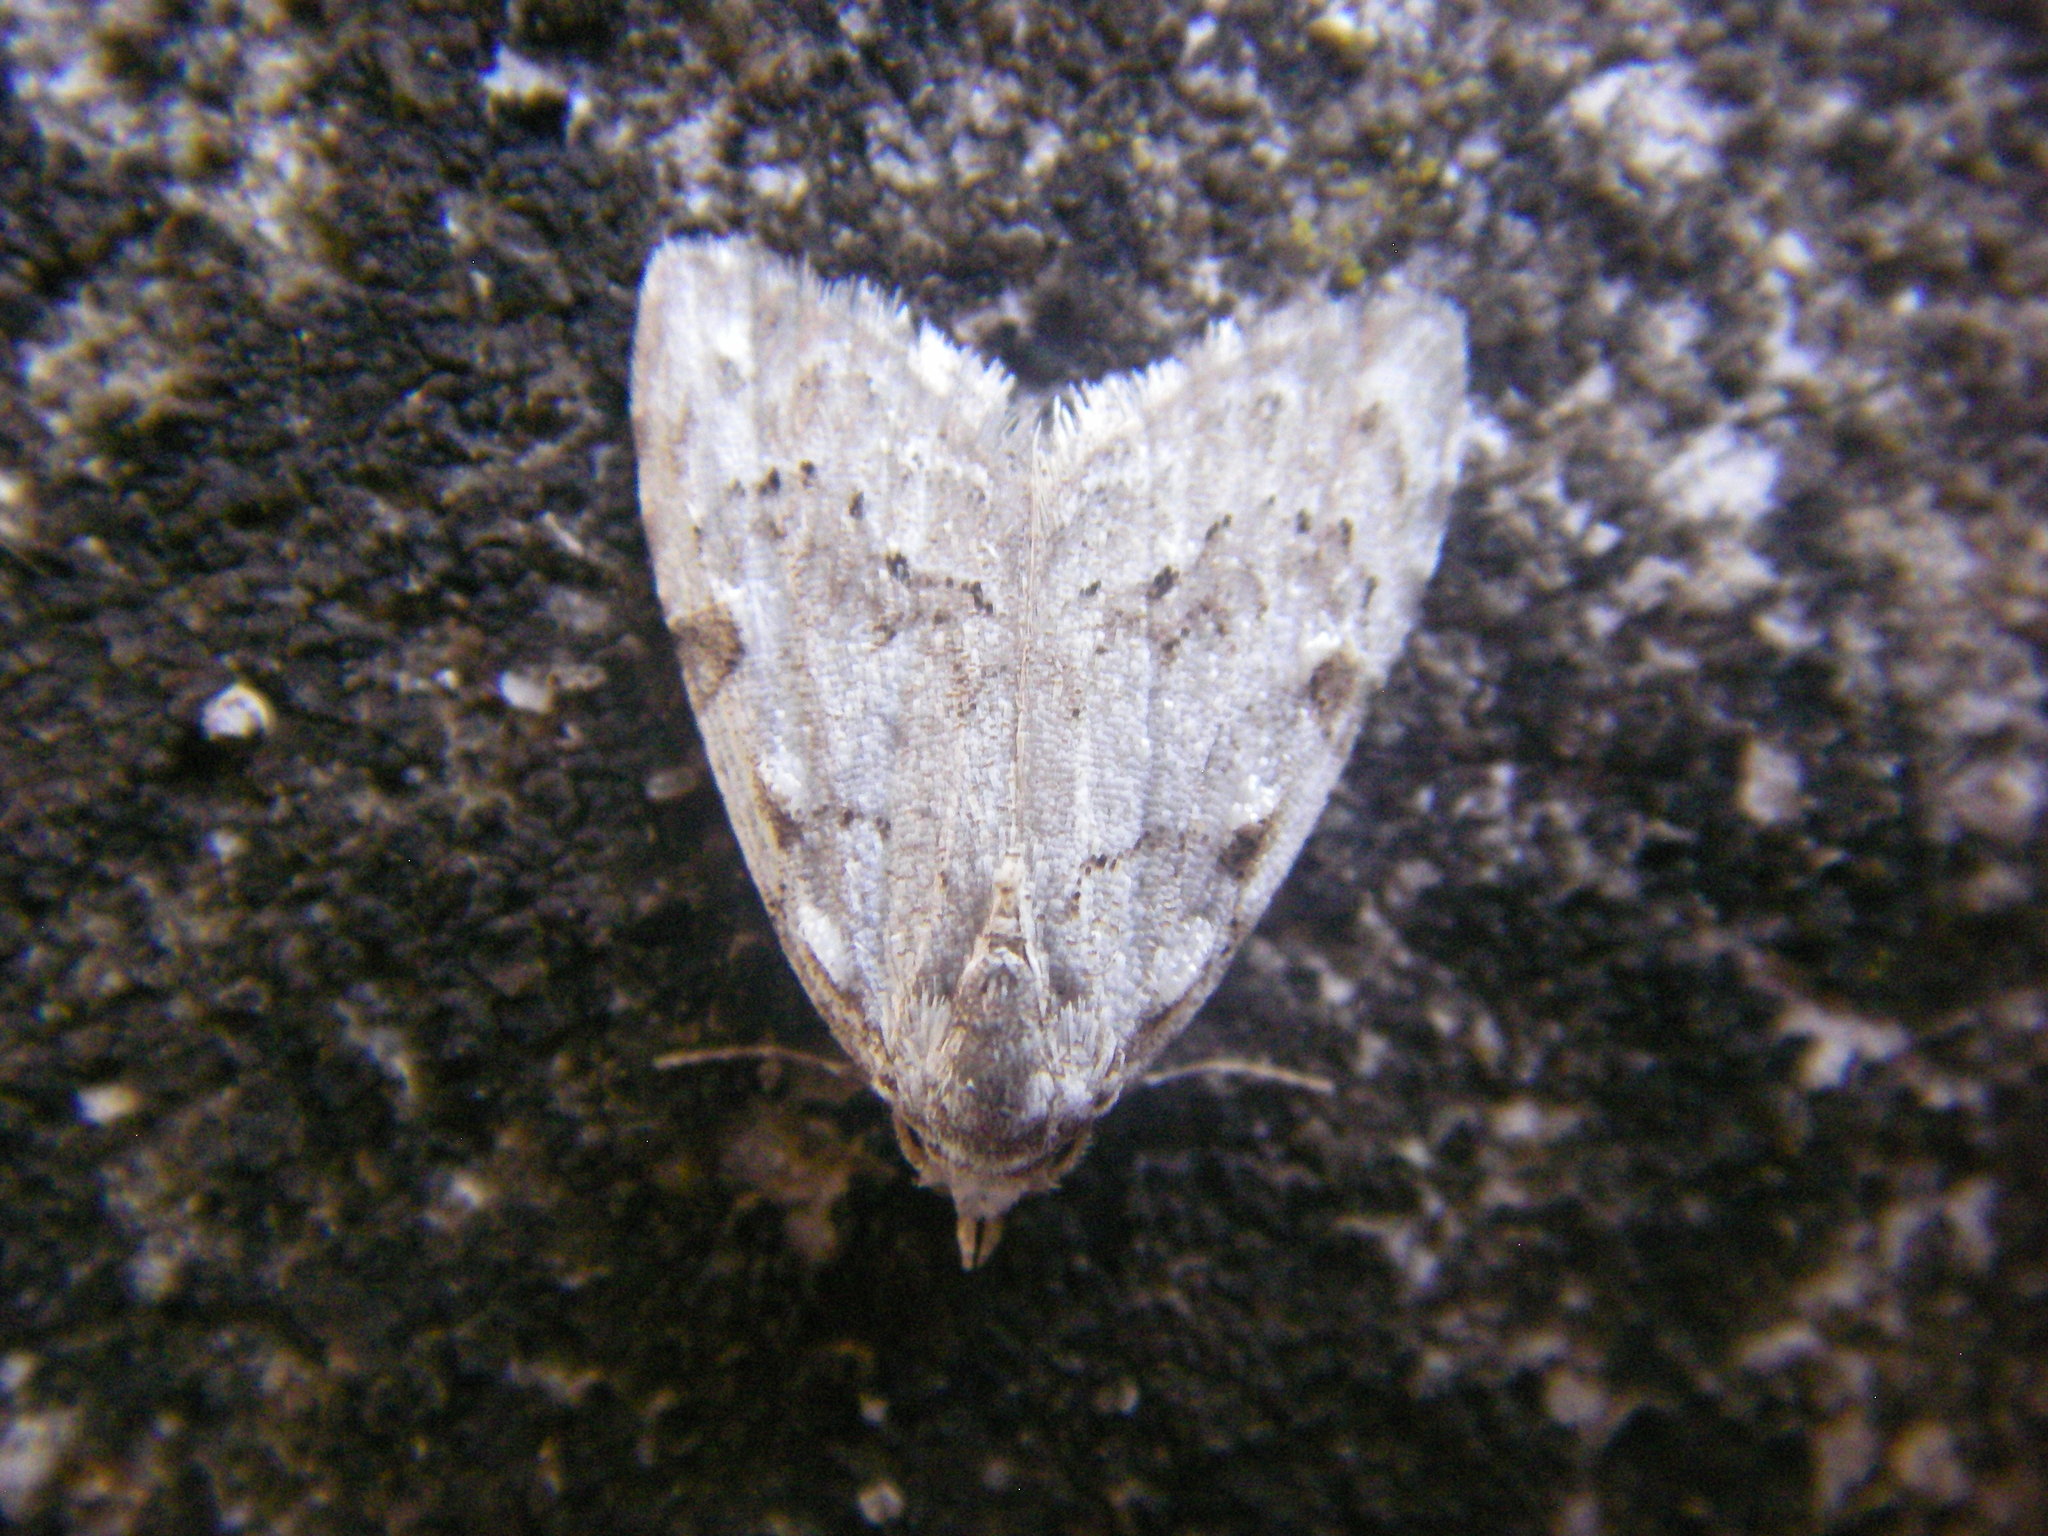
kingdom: Animalia
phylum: Arthropoda
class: Insecta
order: Lepidoptera
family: Nolidae
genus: Nola
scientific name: Nola confusalis
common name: Least black arches
